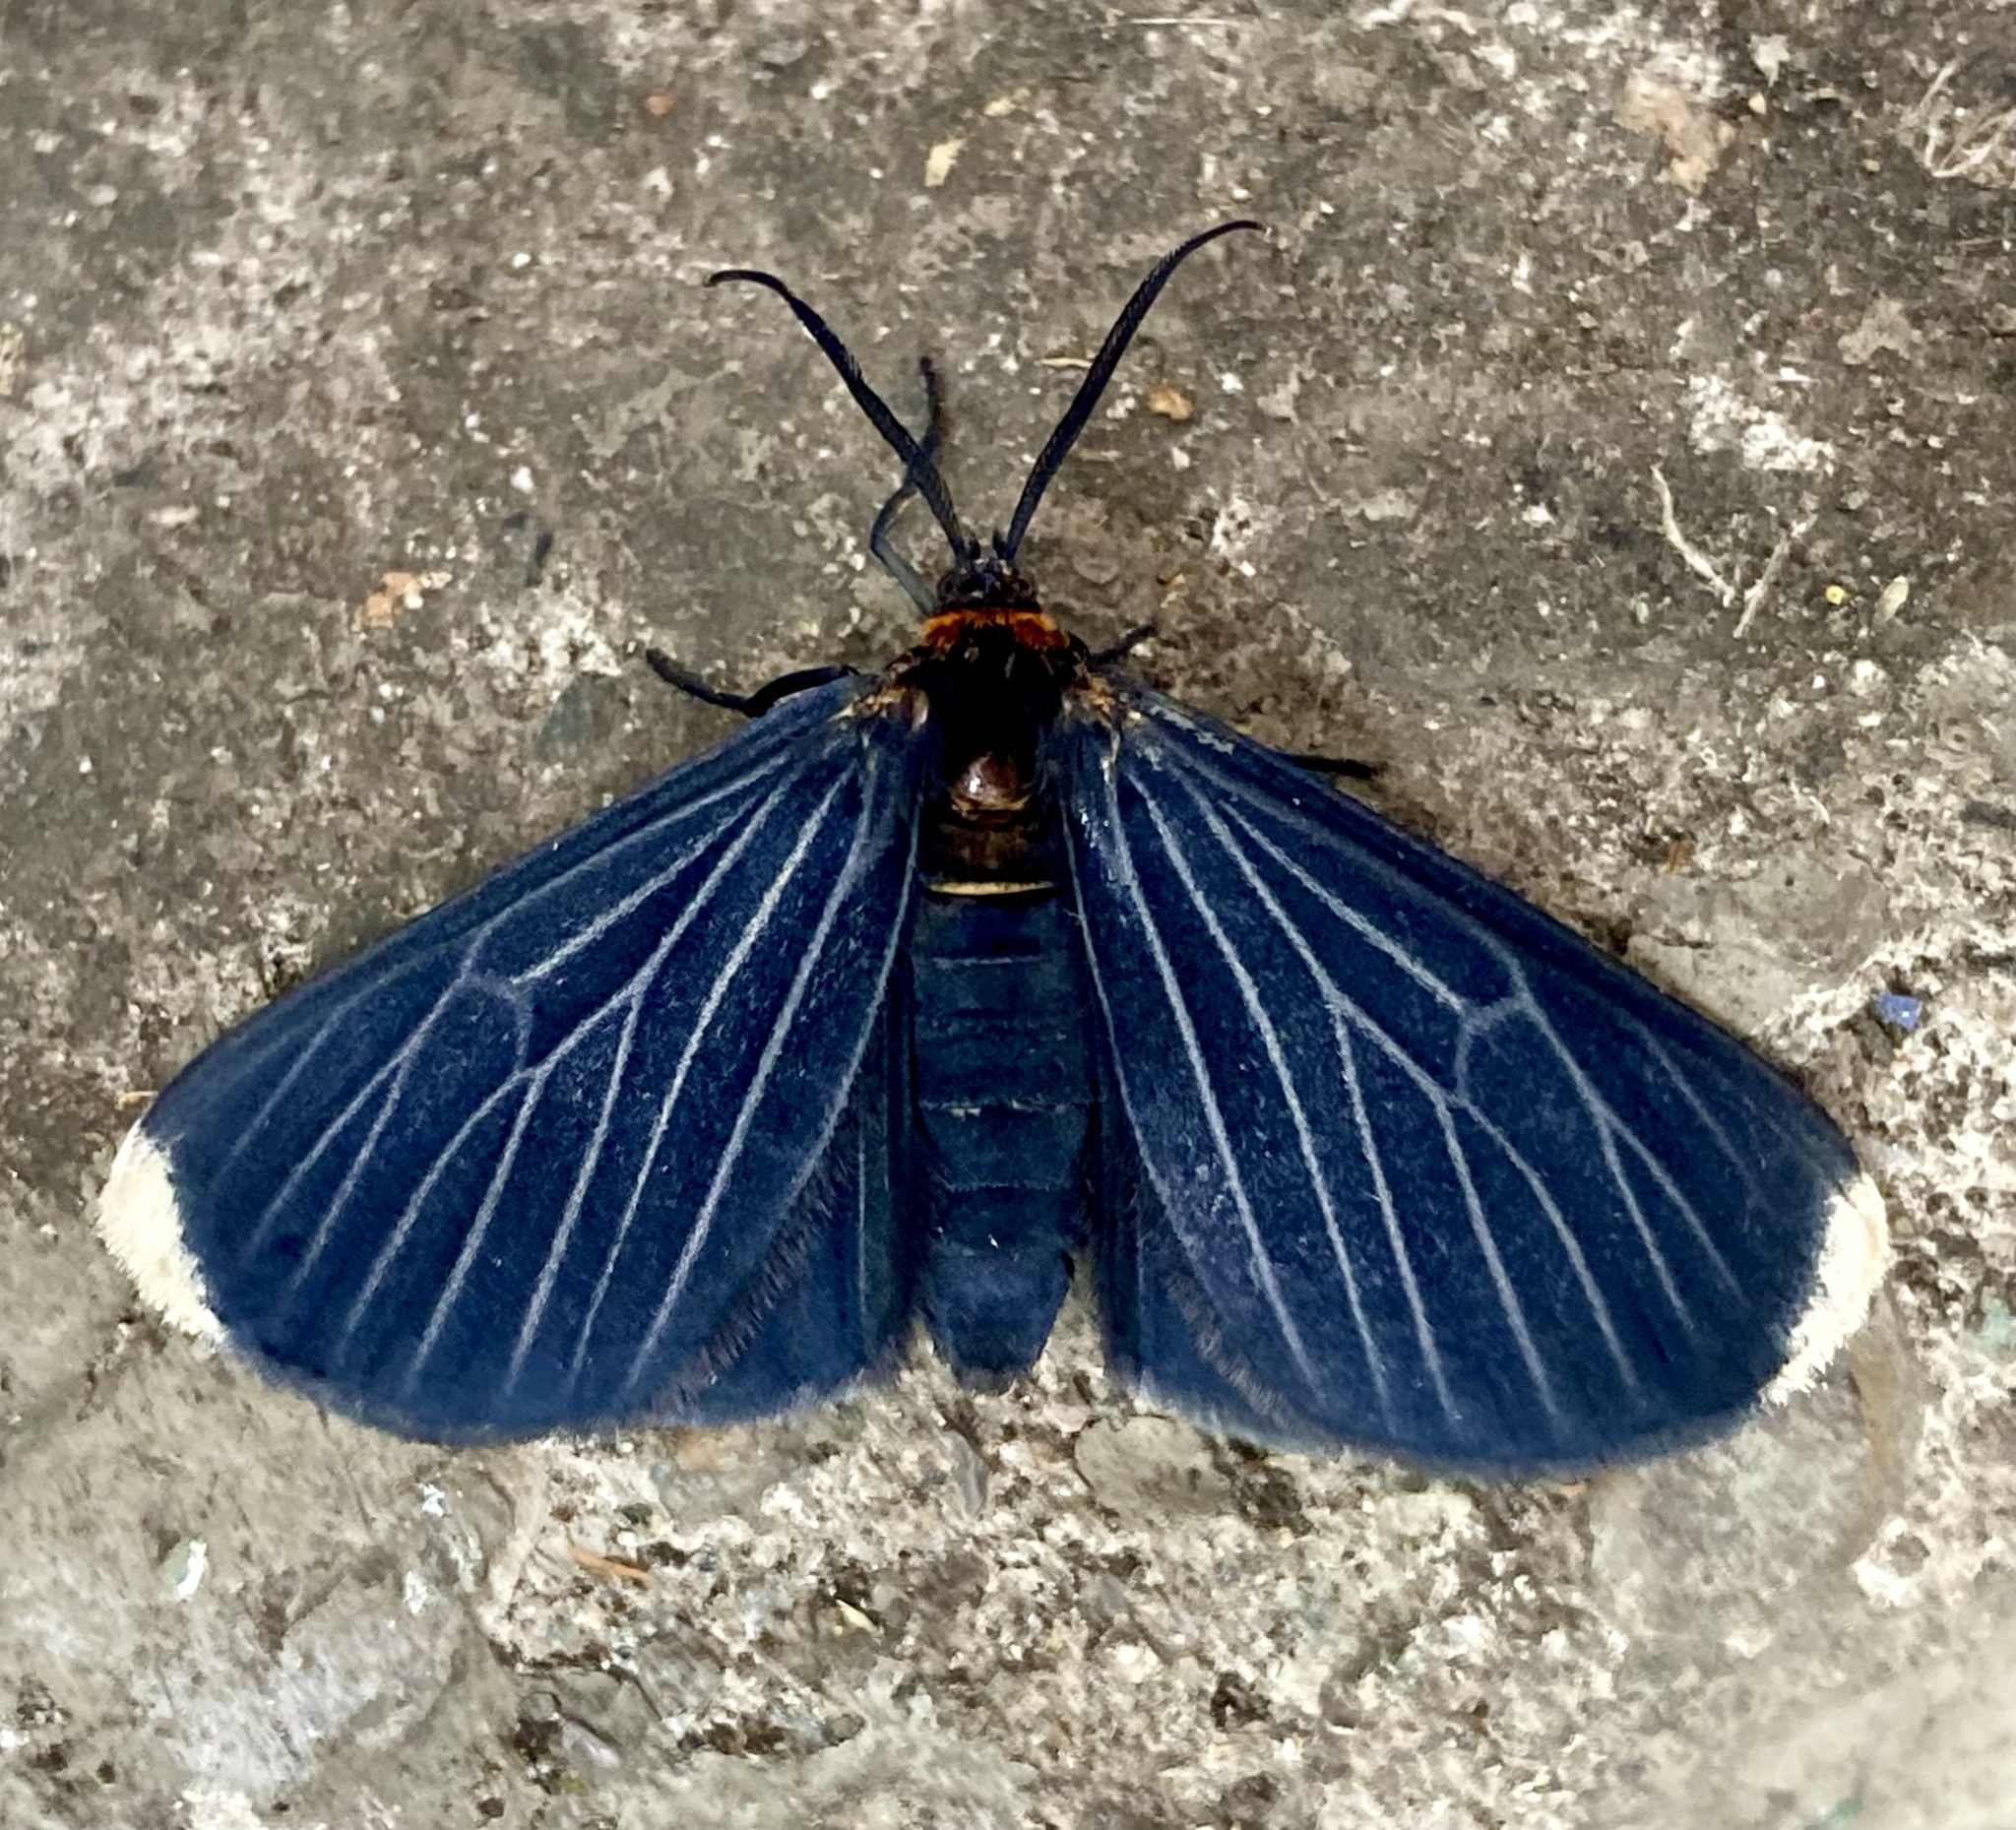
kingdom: Animalia
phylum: Arthropoda
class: Insecta
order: Lepidoptera
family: Geometridae
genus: Melanchroia
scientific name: Melanchroia chephise
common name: White-tipped black
